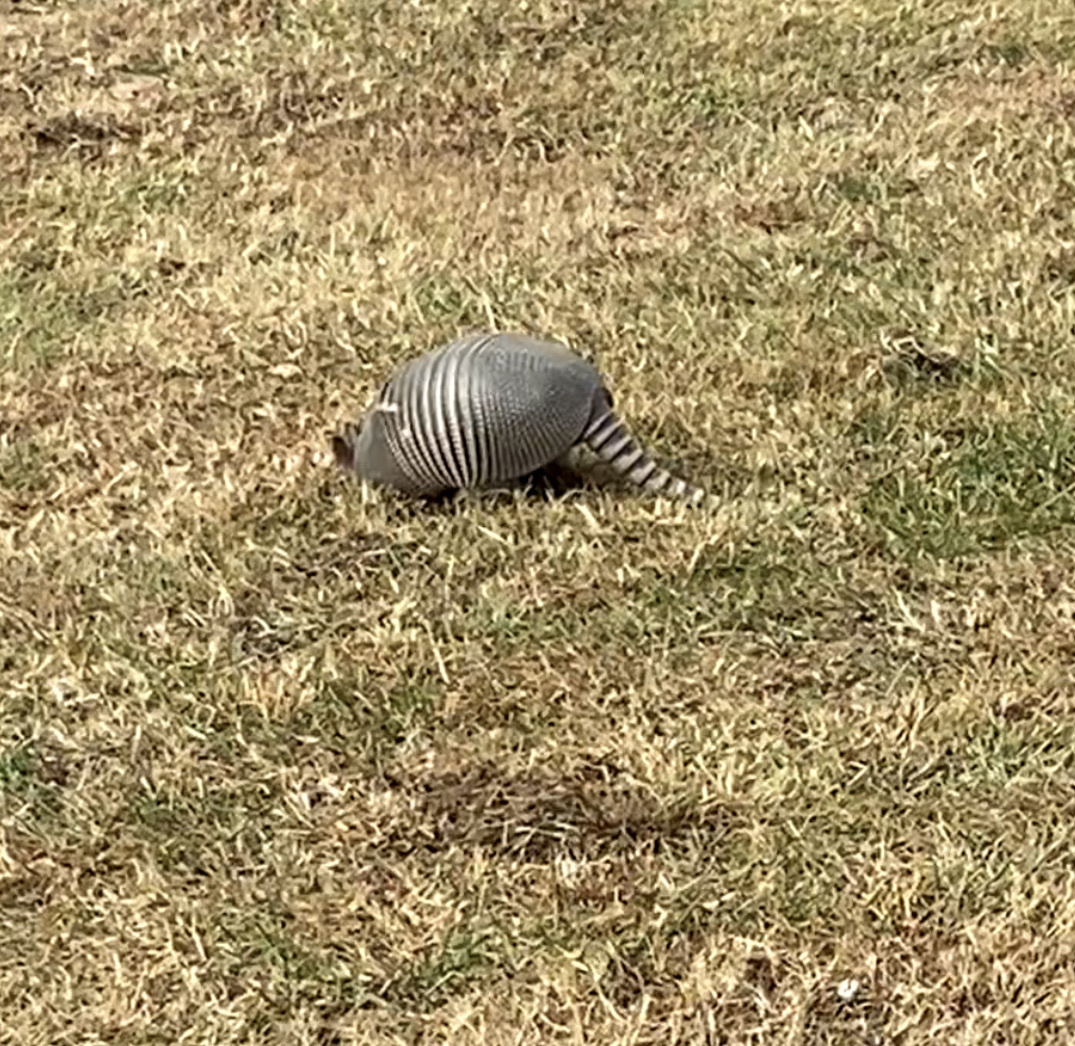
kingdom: Animalia
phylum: Chordata
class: Mammalia
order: Cingulata
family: Dasypodidae
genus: Dasypus
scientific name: Dasypus novemcinctus
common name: Nine-banded armadillo
